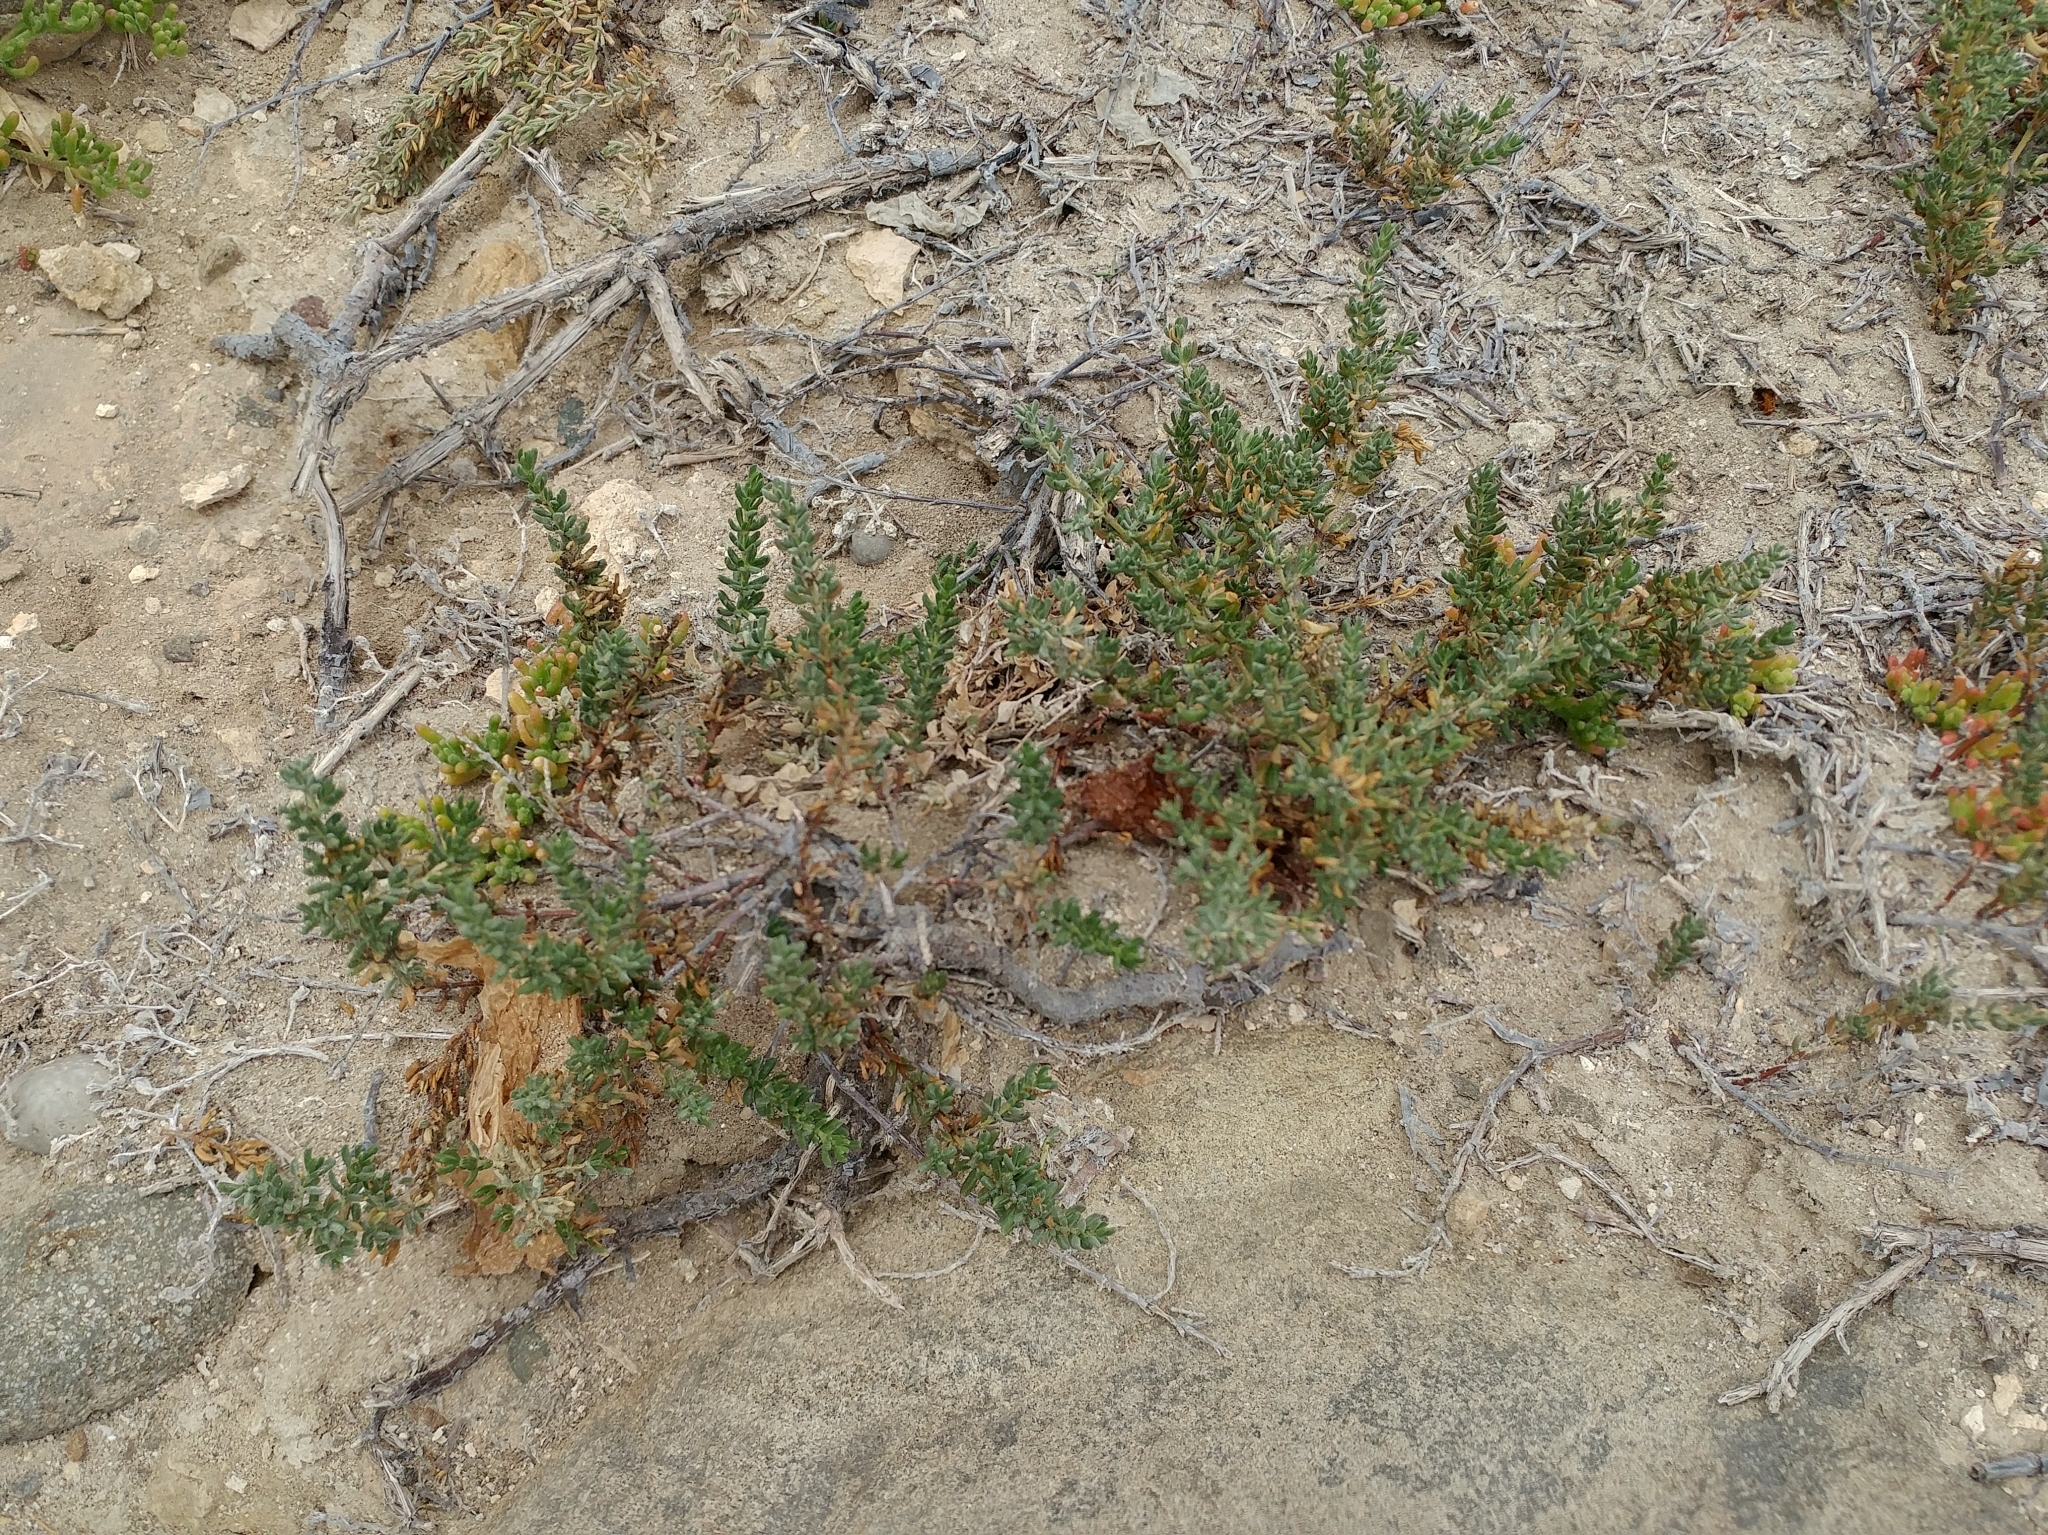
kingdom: Plantae
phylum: Tracheophyta
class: Magnoliopsida
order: Caryophyllales
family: Frankeniaceae
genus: Frankenia
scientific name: Frankenia salina
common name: Alkali seaheath
